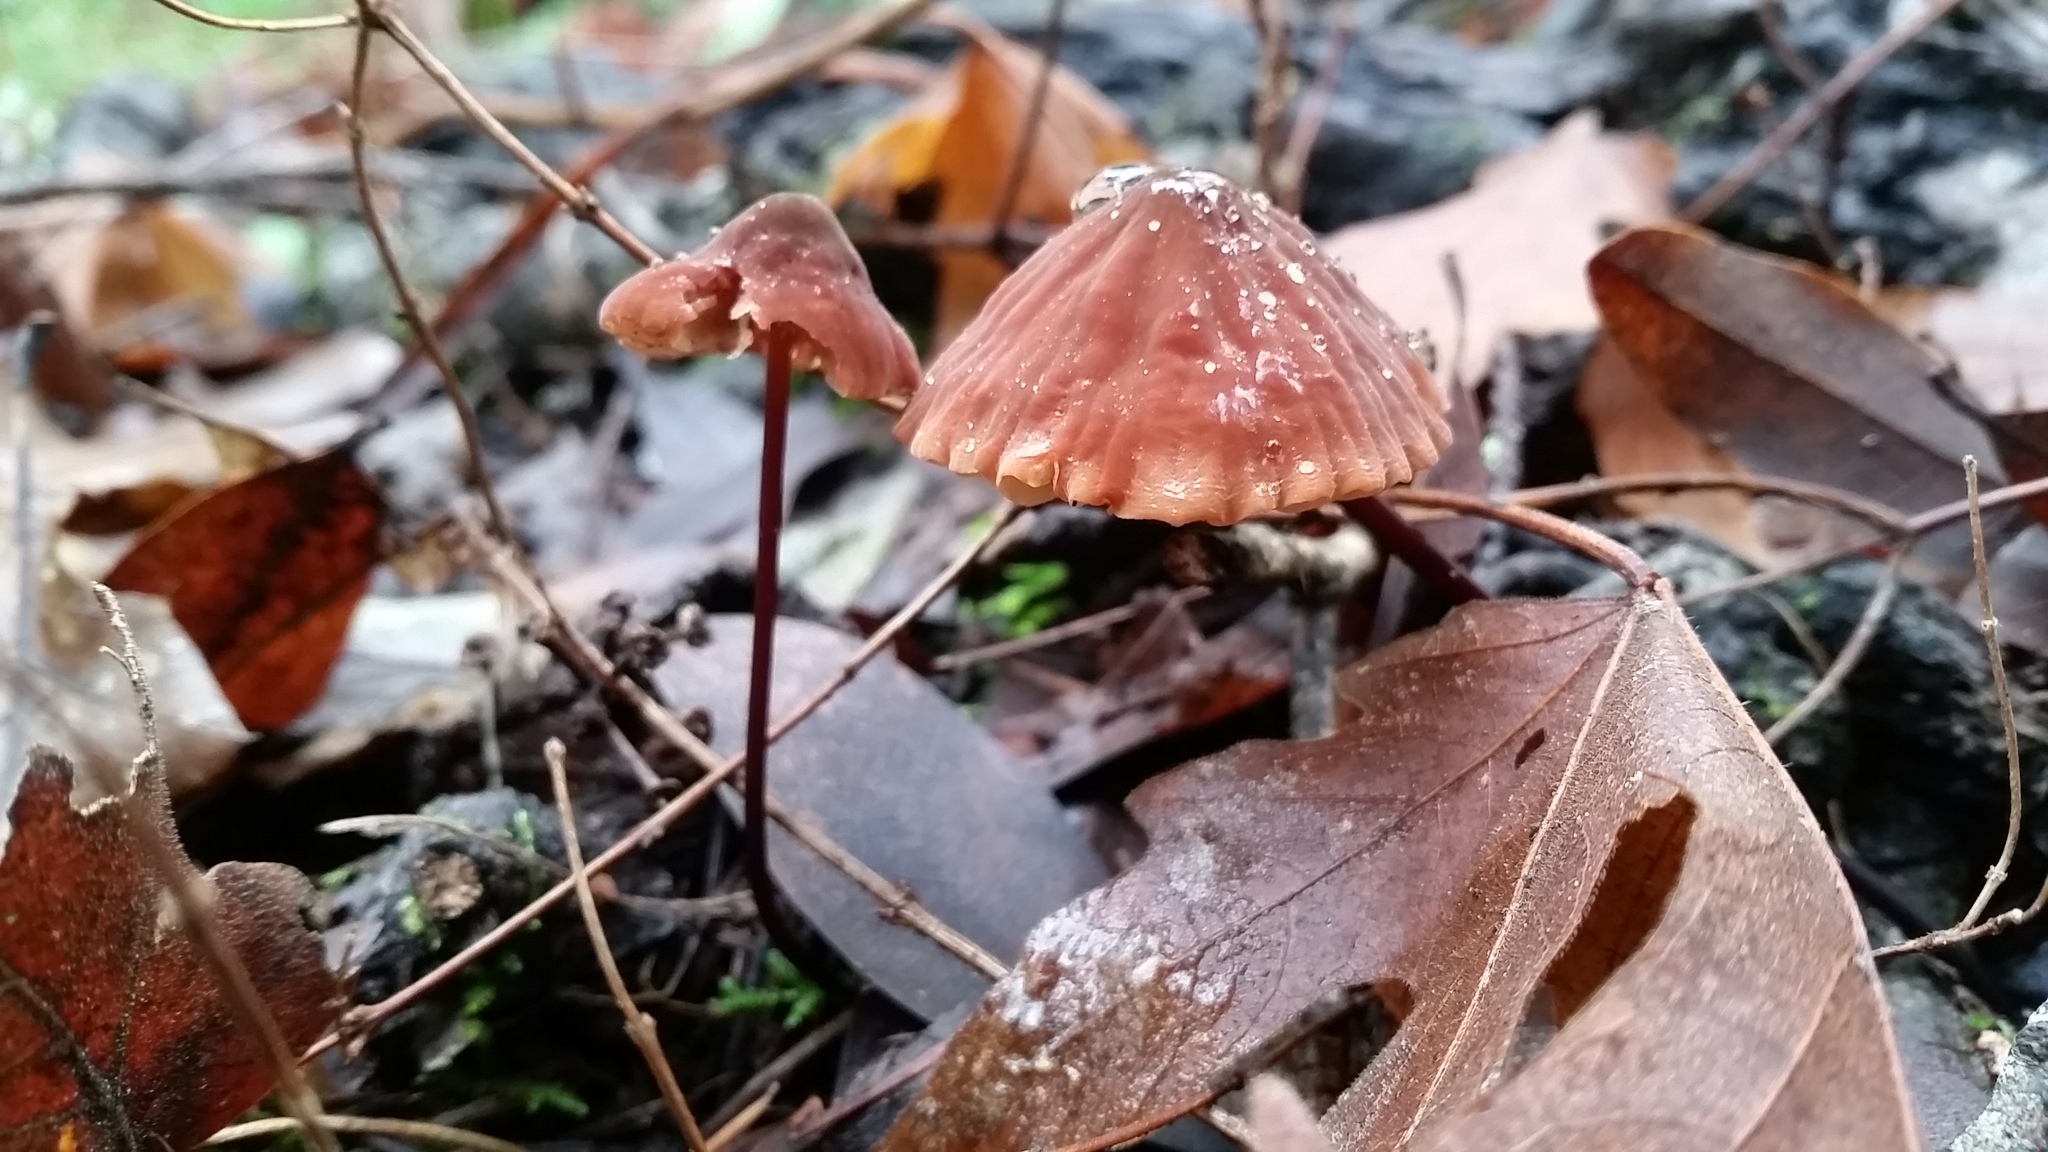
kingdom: Fungi
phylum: Basidiomycota
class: Agaricomycetes
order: Agaricales
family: Marasmiaceae
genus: Marasmius
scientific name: Marasmius plicatulus
